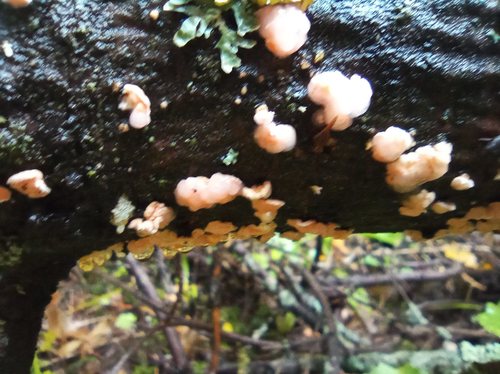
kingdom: Fungi
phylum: Basidiomycota
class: Tremellomycetes
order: Tremellales
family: Tremellaceae
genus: Phaeotremella
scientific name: Phaeotremella mycophaga
